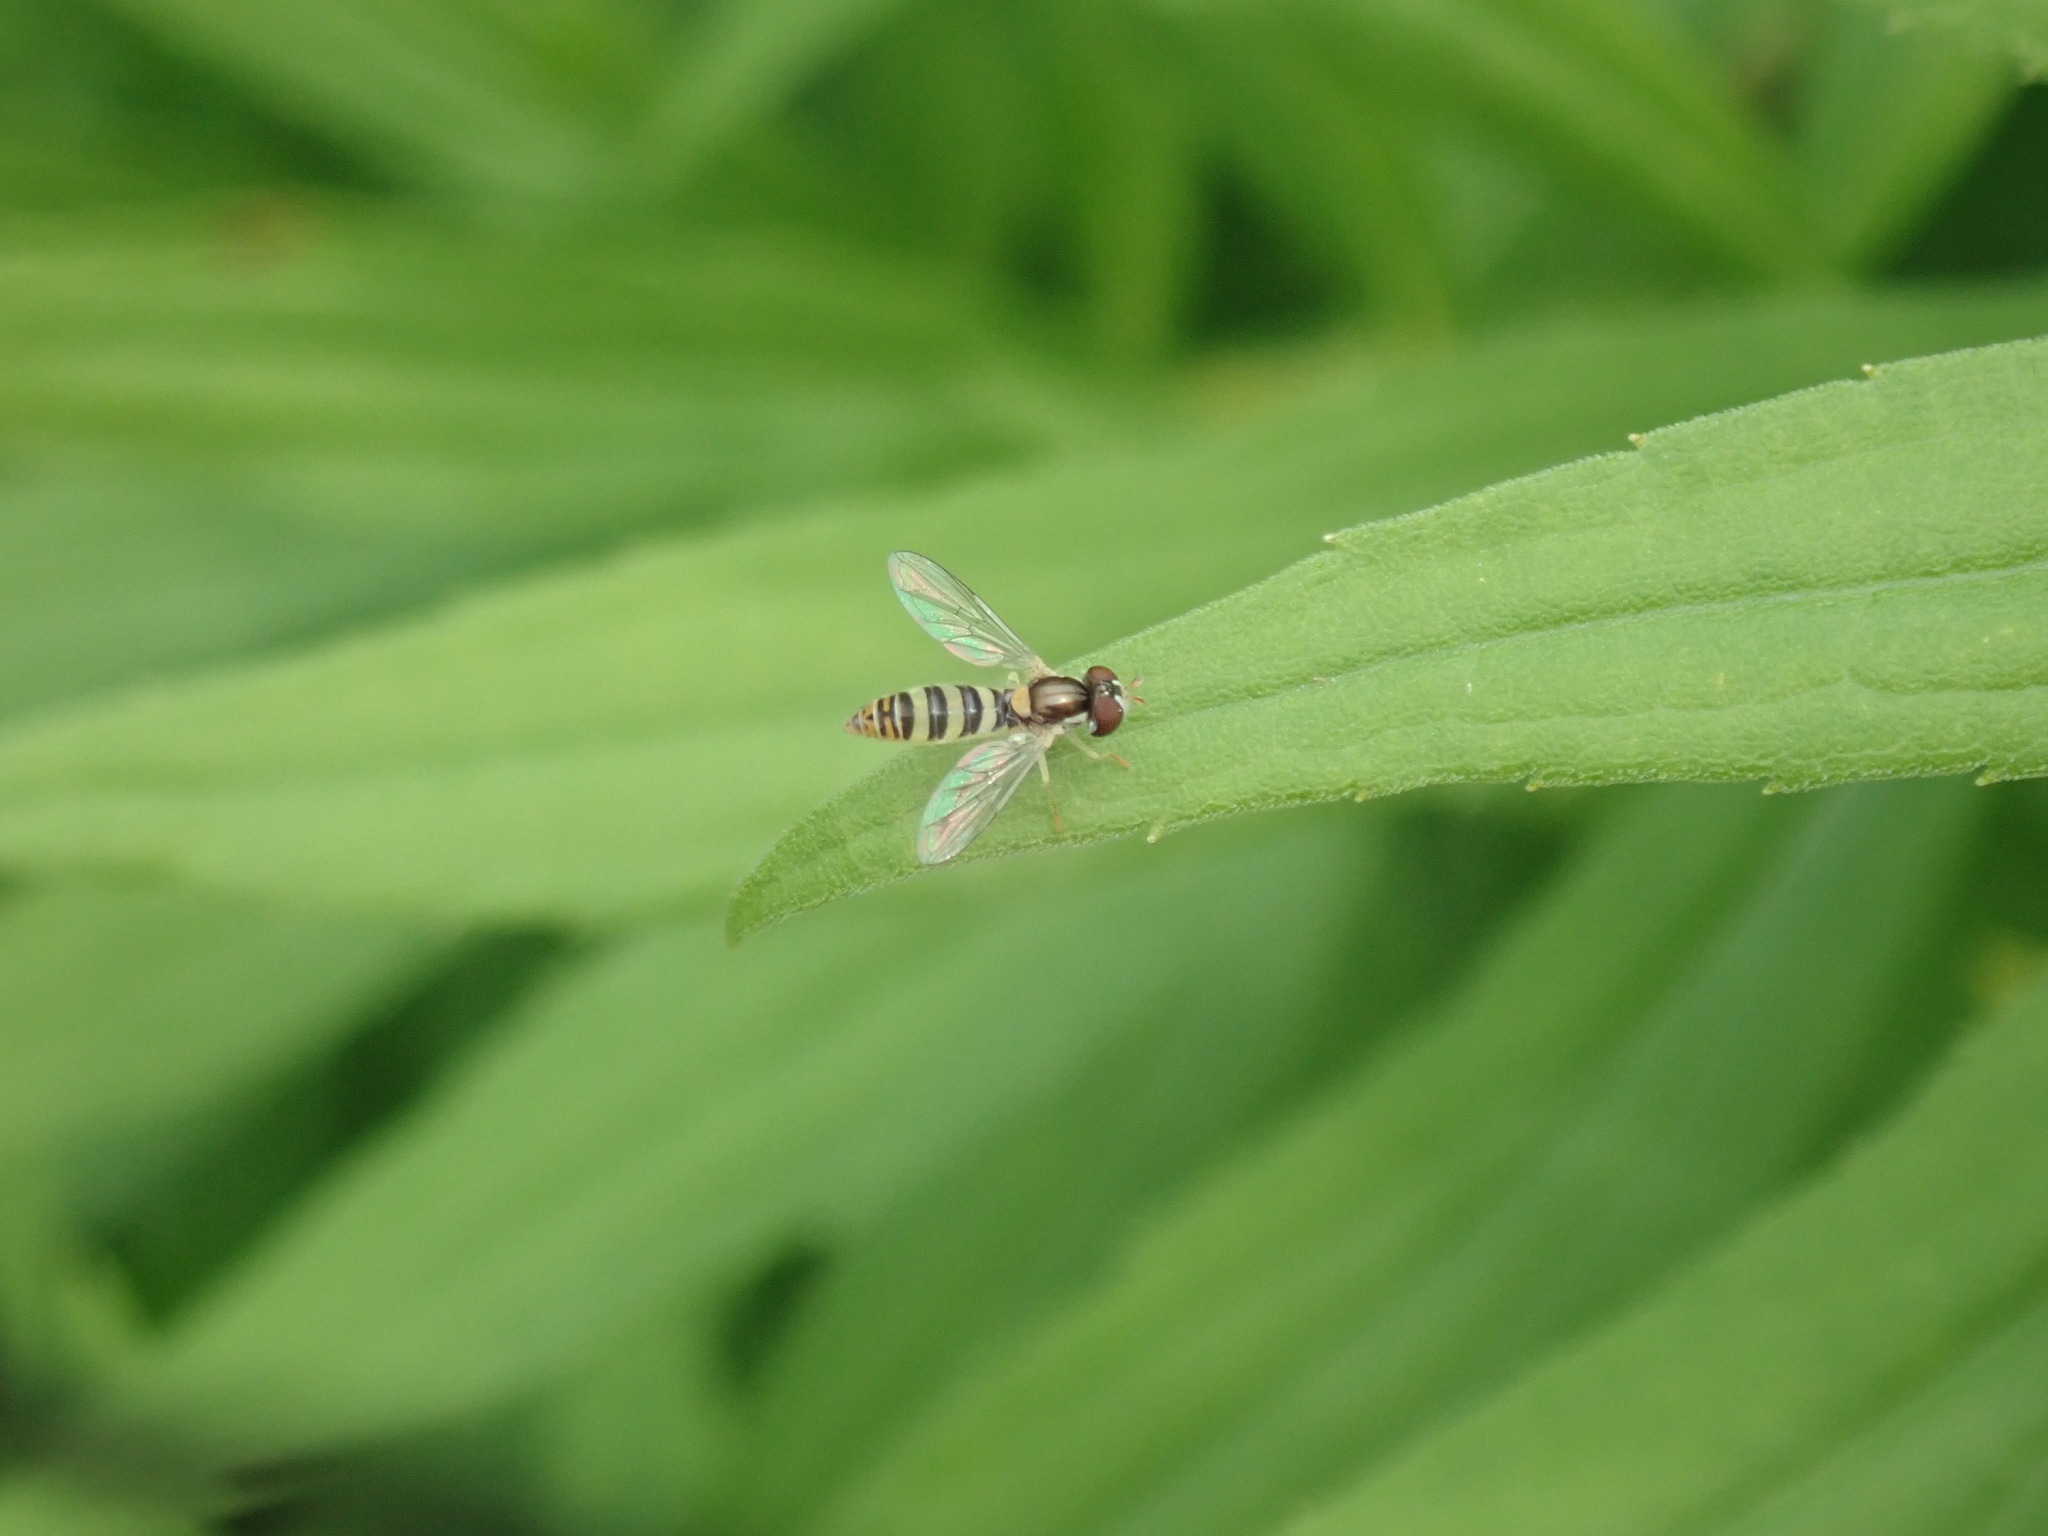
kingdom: Animalia
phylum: Arthropoda
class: Insecta
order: Diptera
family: Syrphidae
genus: Sphaerophoria
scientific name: Sphaerophoria contigua
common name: Tufted globetail
